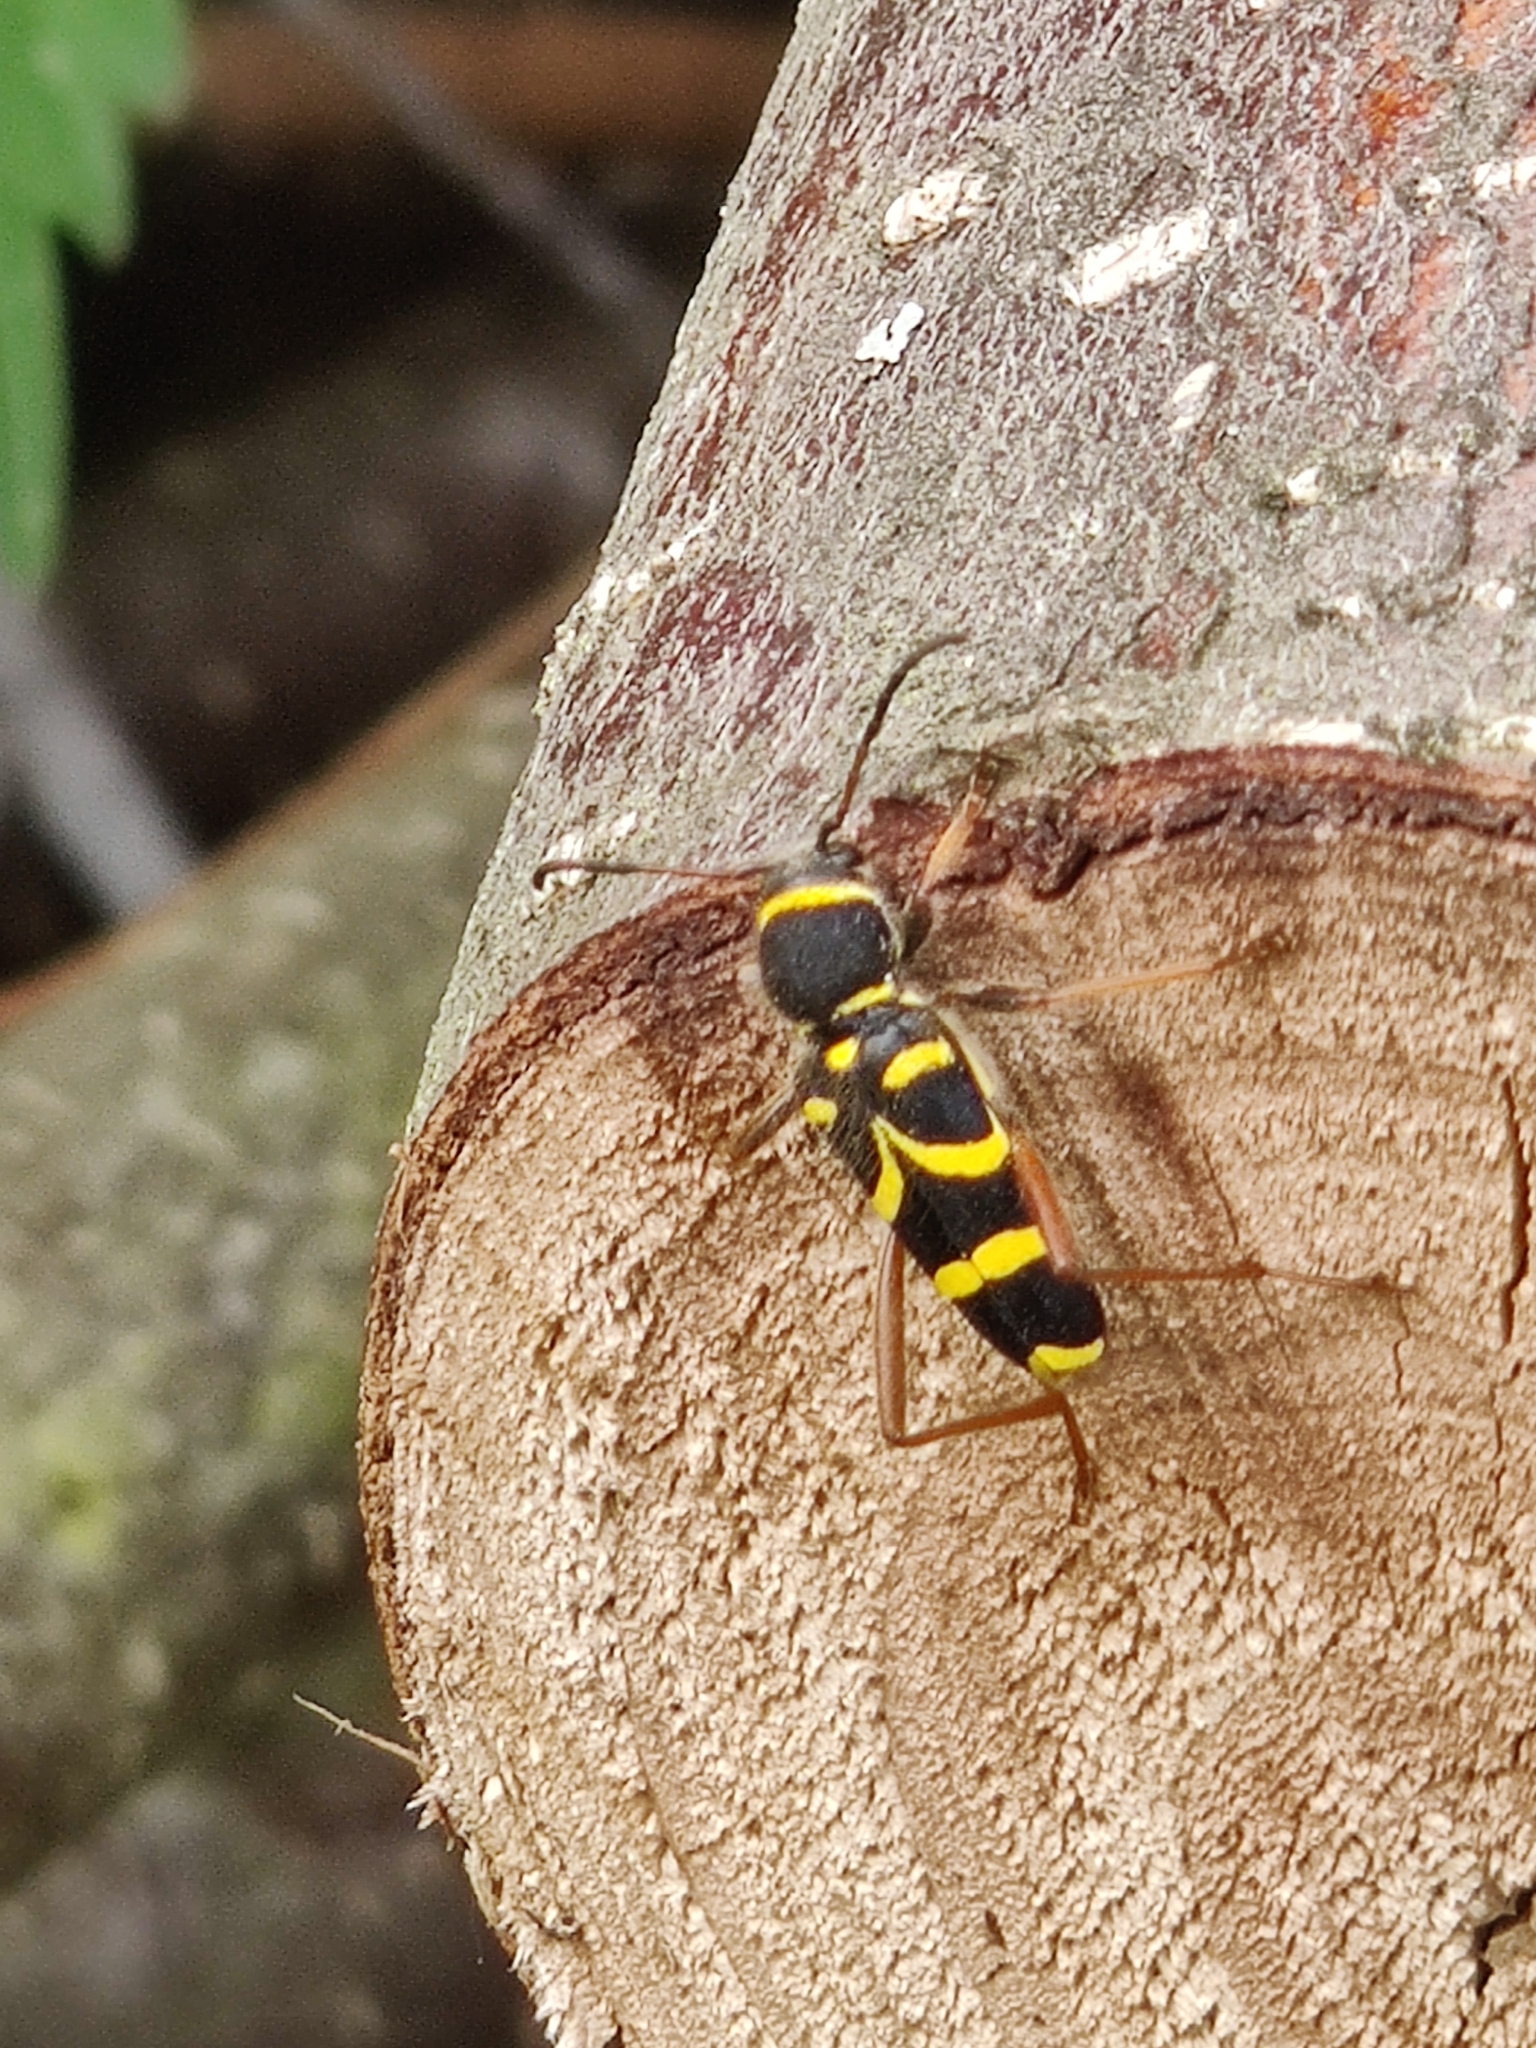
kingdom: Animalia
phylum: Arthropoda
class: Insecta
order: Coleoptera
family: Cerambycidae
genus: Clytus
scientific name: Clytus arietis
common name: Wasp beetle
